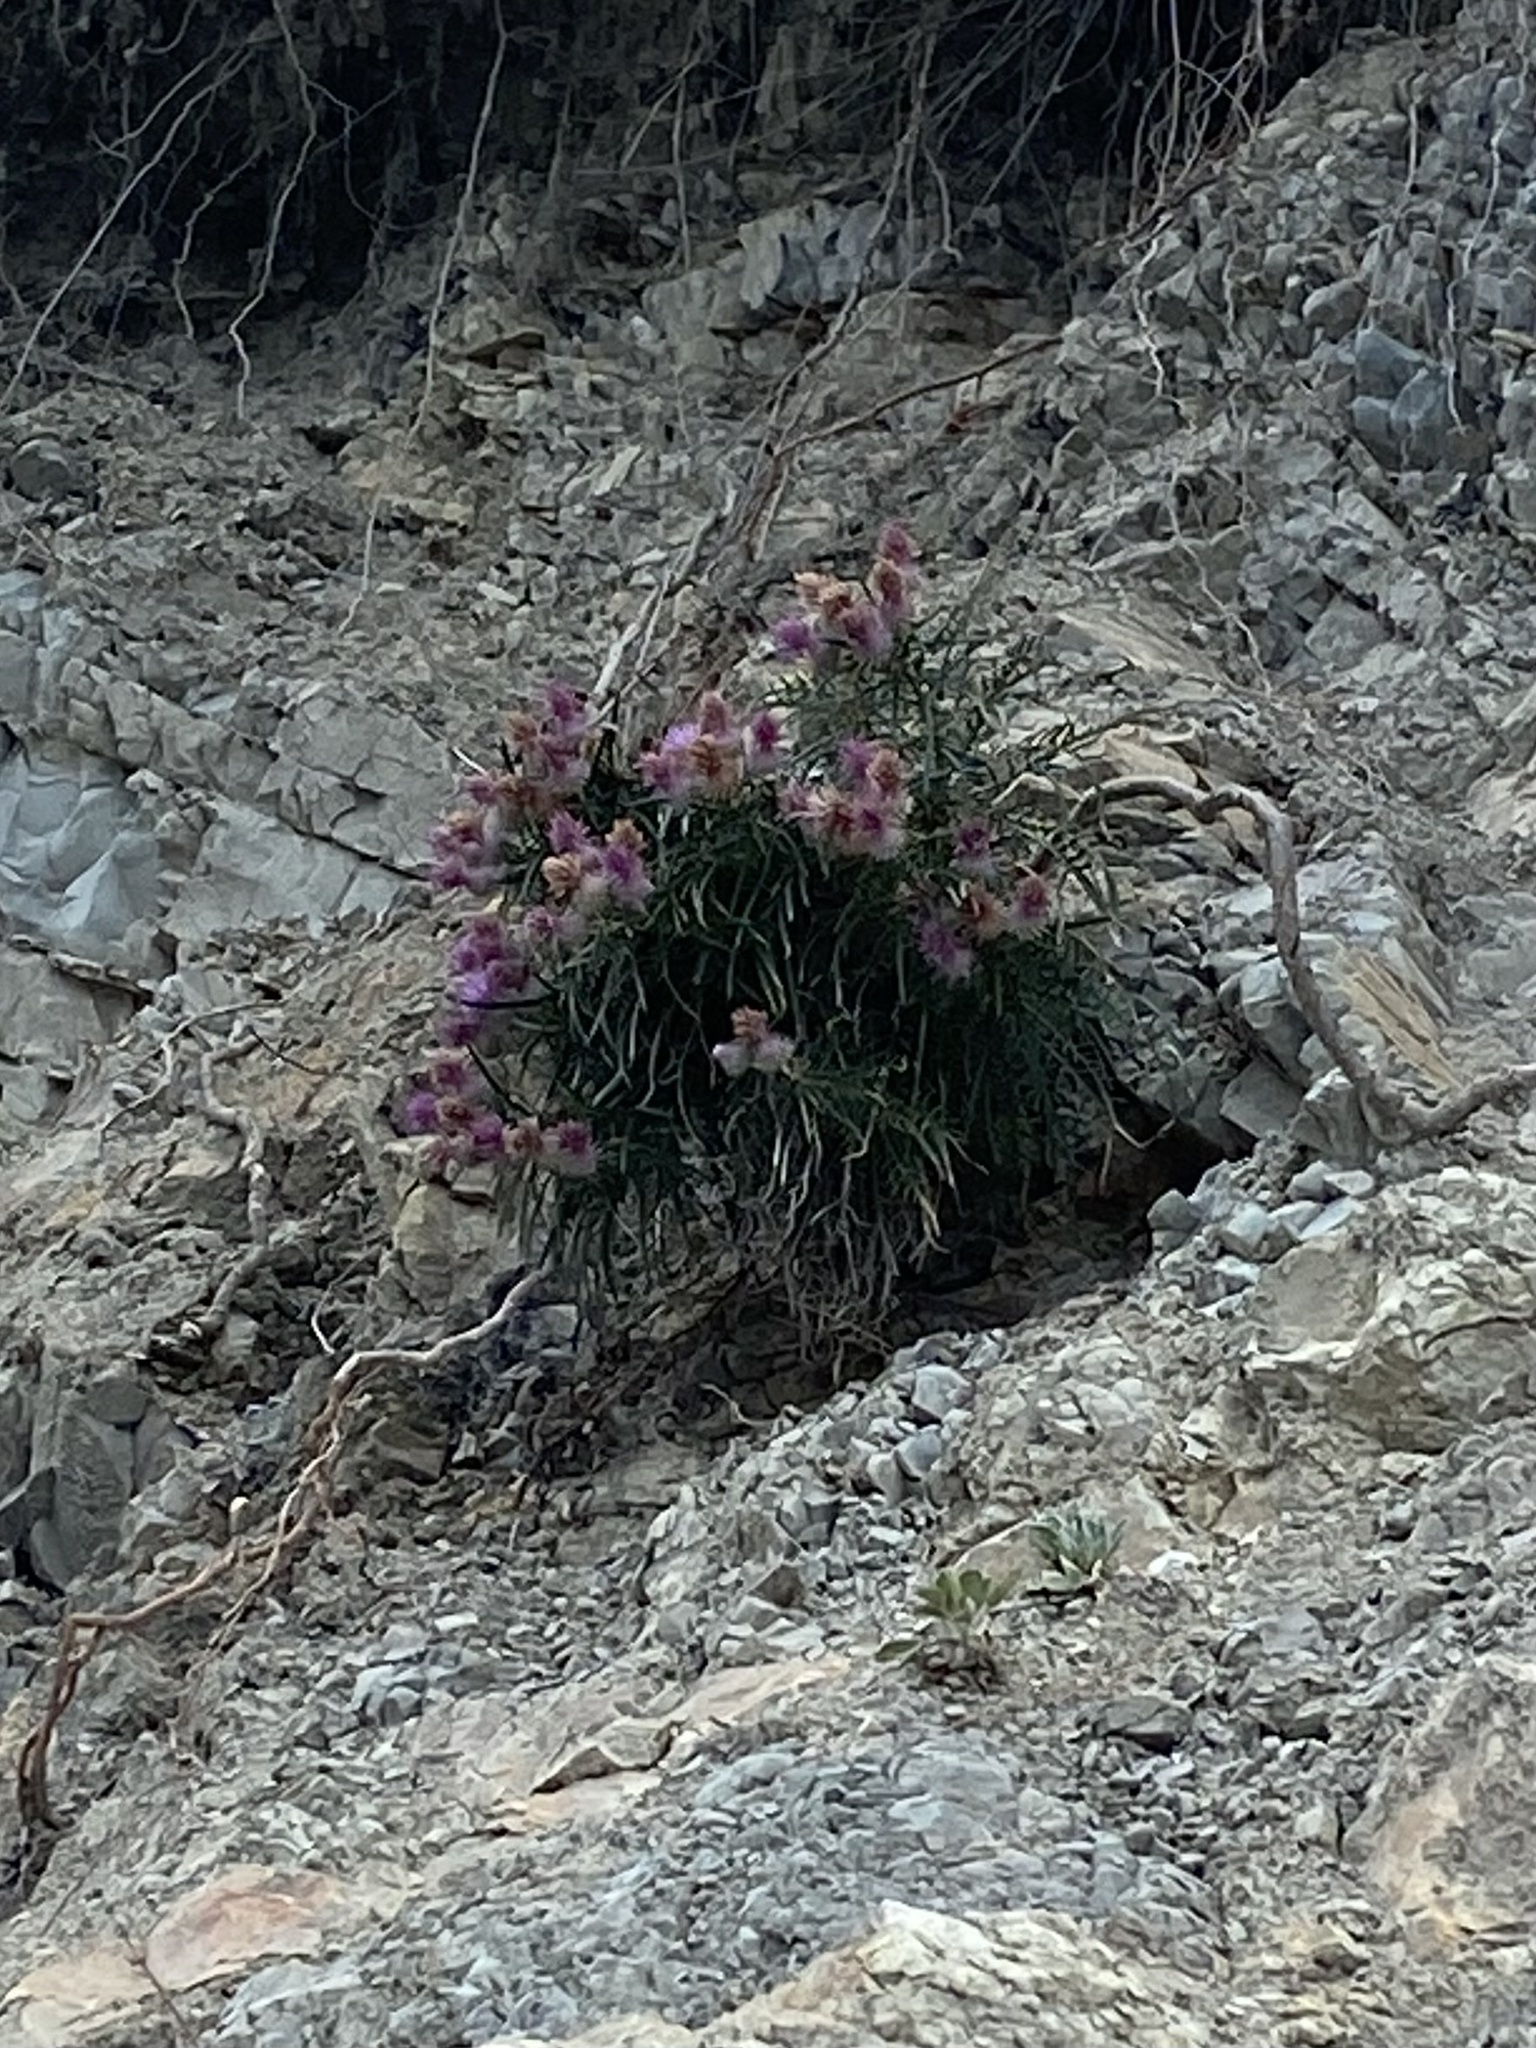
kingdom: Plantae
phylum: Tracheophyta
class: Magnoliopsida
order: Asterales
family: Asteraceae
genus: Ptilostemon
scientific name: Ptilostemon echinocephalus
